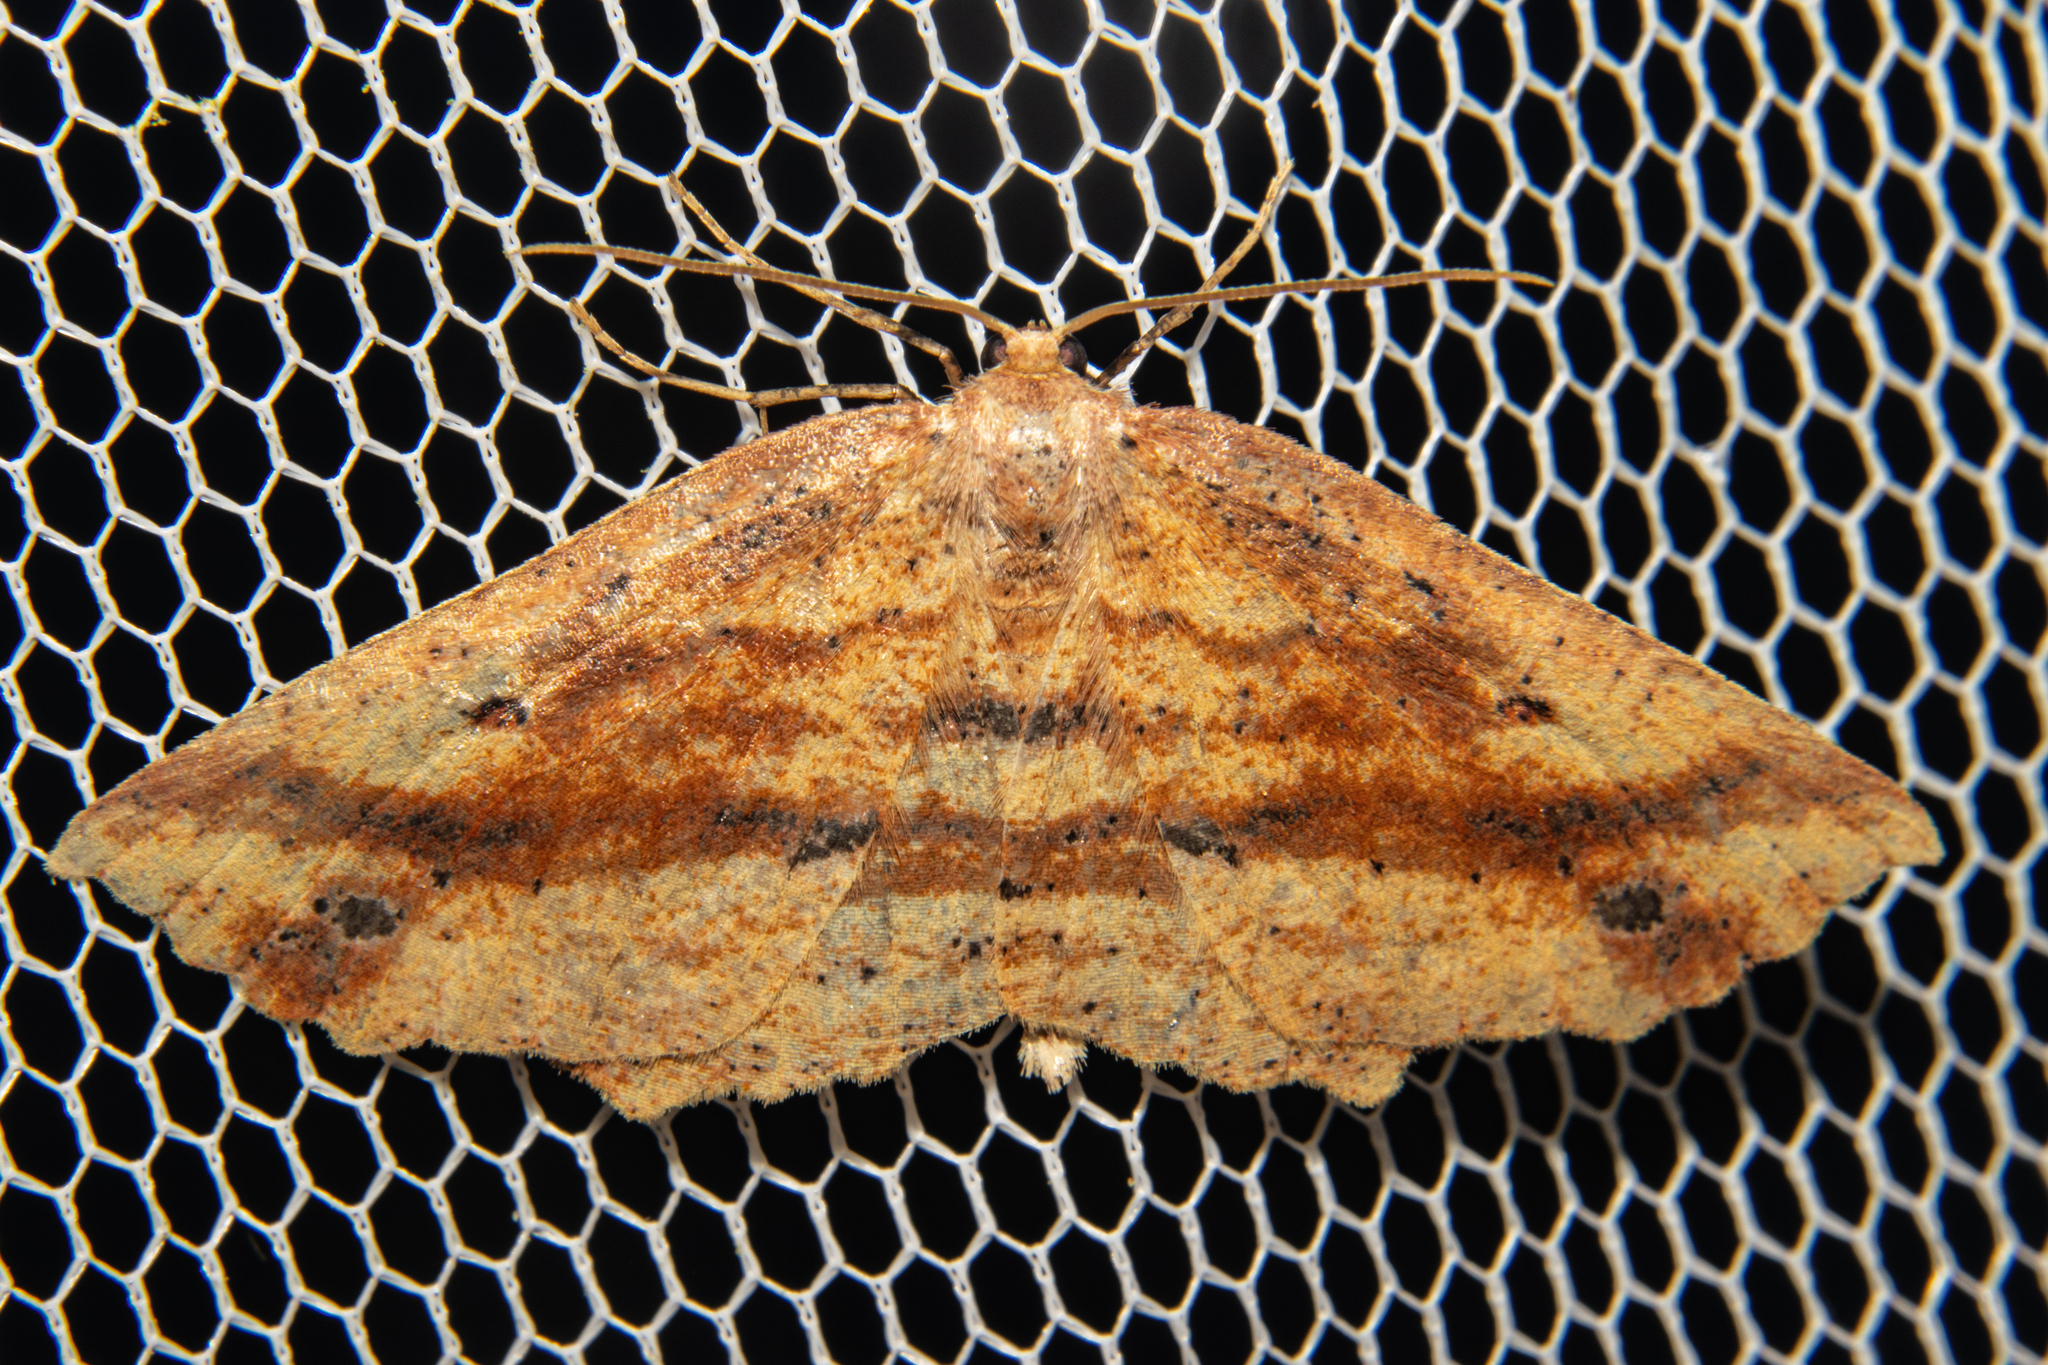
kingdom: Animalia
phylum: Arthropoda
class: Insecta
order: Lepidoptera
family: Geometridae
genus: Xyridacma
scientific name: Xyridacma veronicae
